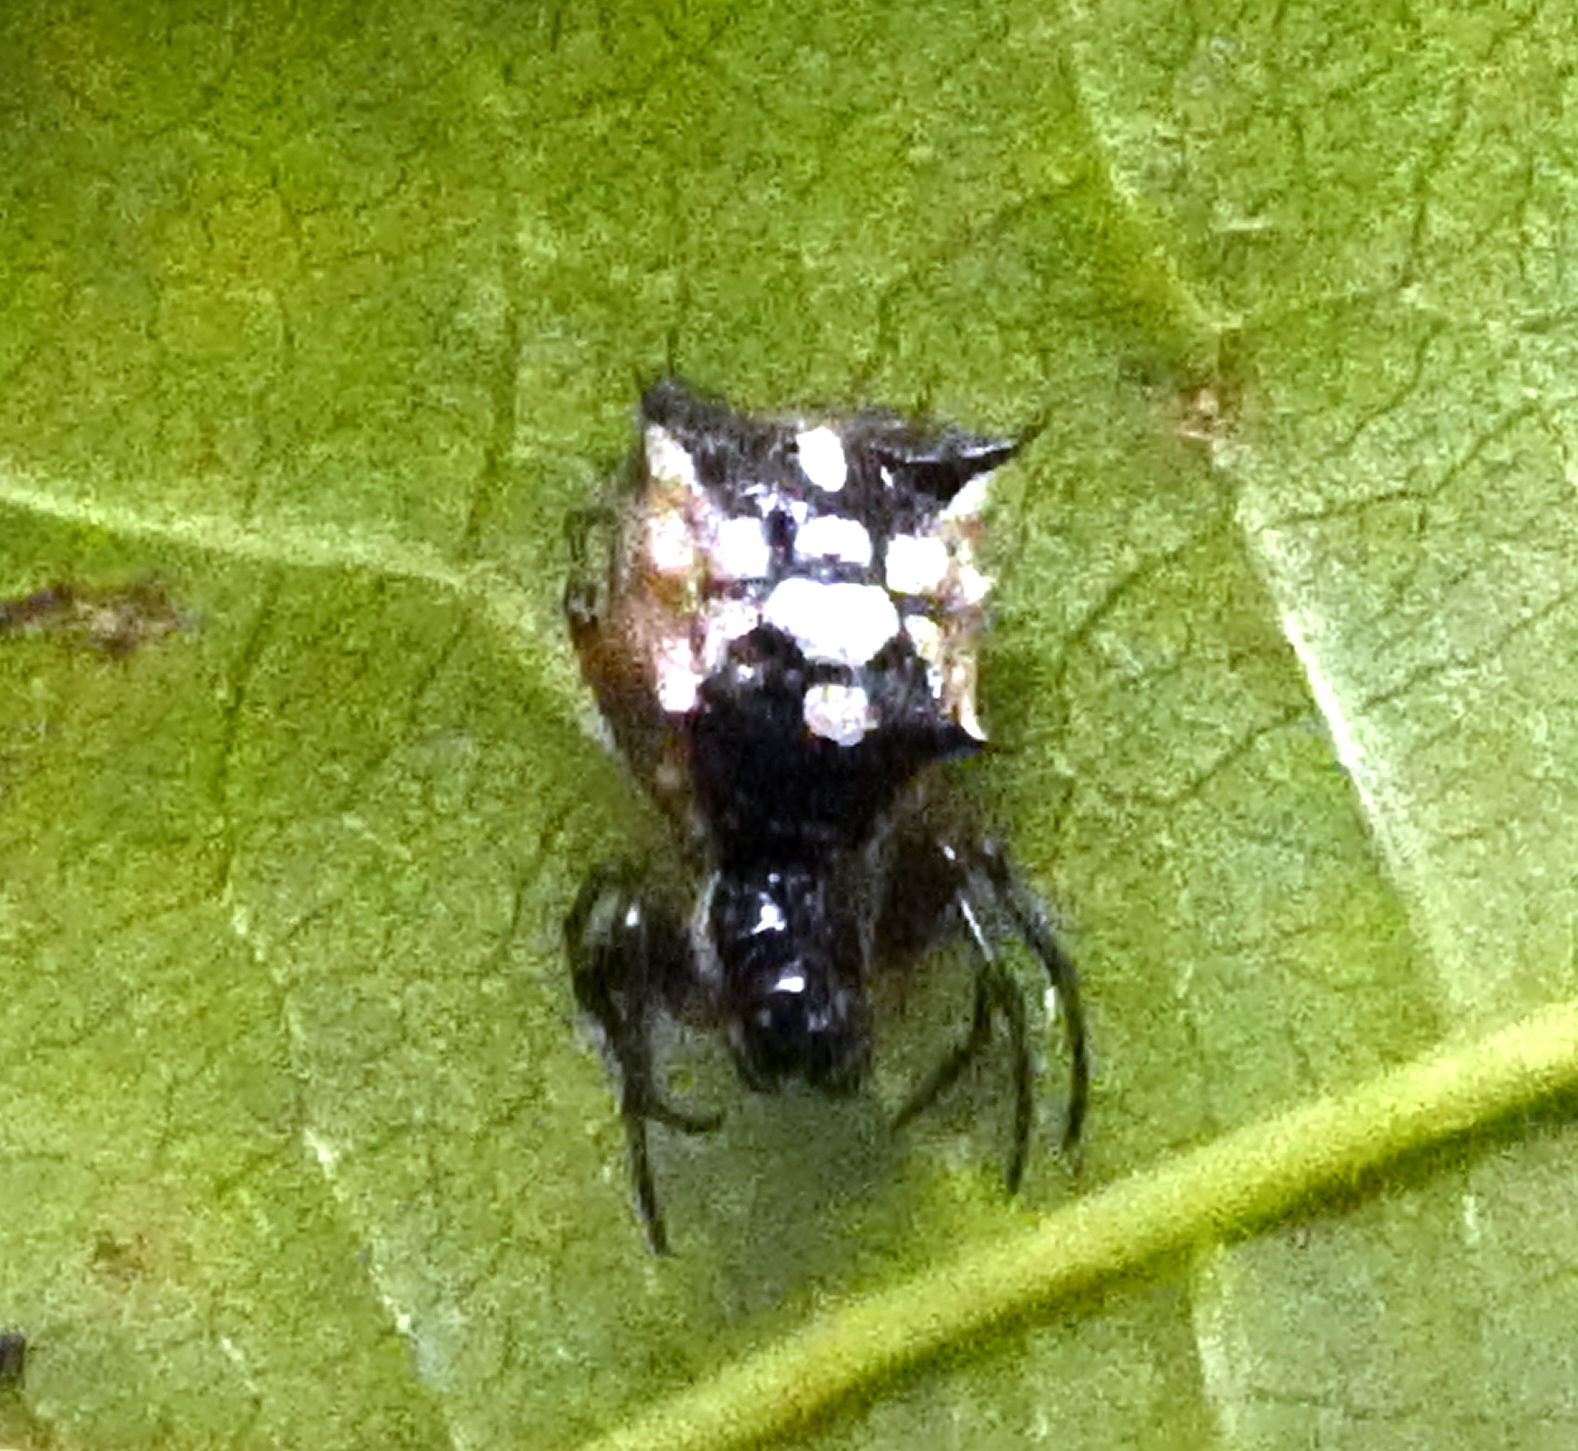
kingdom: Animalia
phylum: Arthropoda
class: Arachnida
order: Araneae
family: Araneidae
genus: Micrathena
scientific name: Micrathena picta
